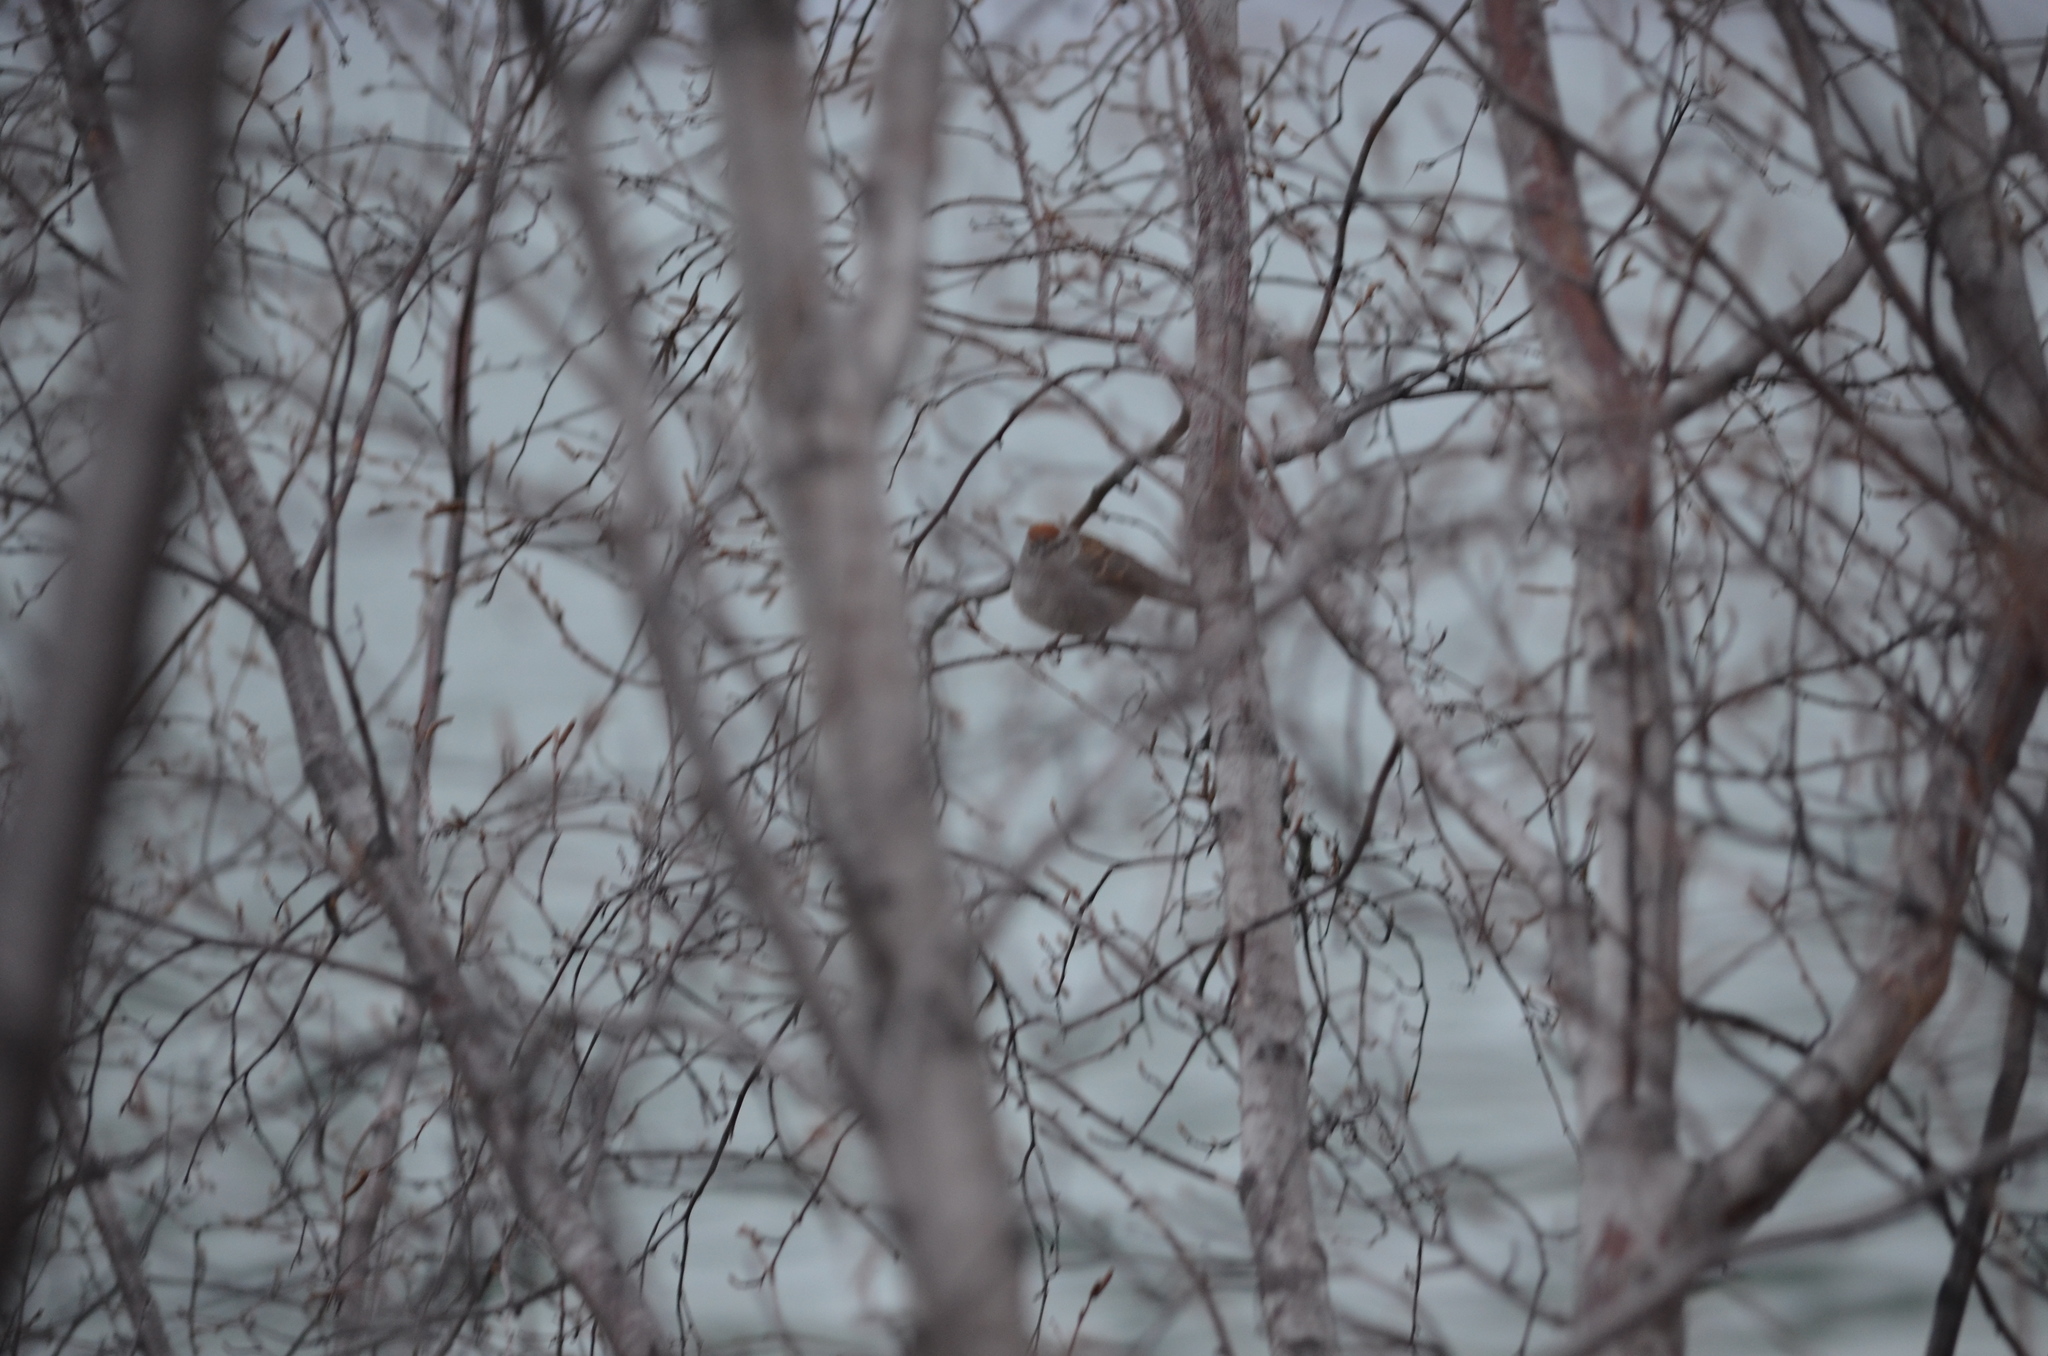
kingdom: Animalia
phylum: Chordata
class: Aves
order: Passeriformes
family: Passerellidae
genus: Spizella
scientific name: Spizella passerina
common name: Chipping sparrow
